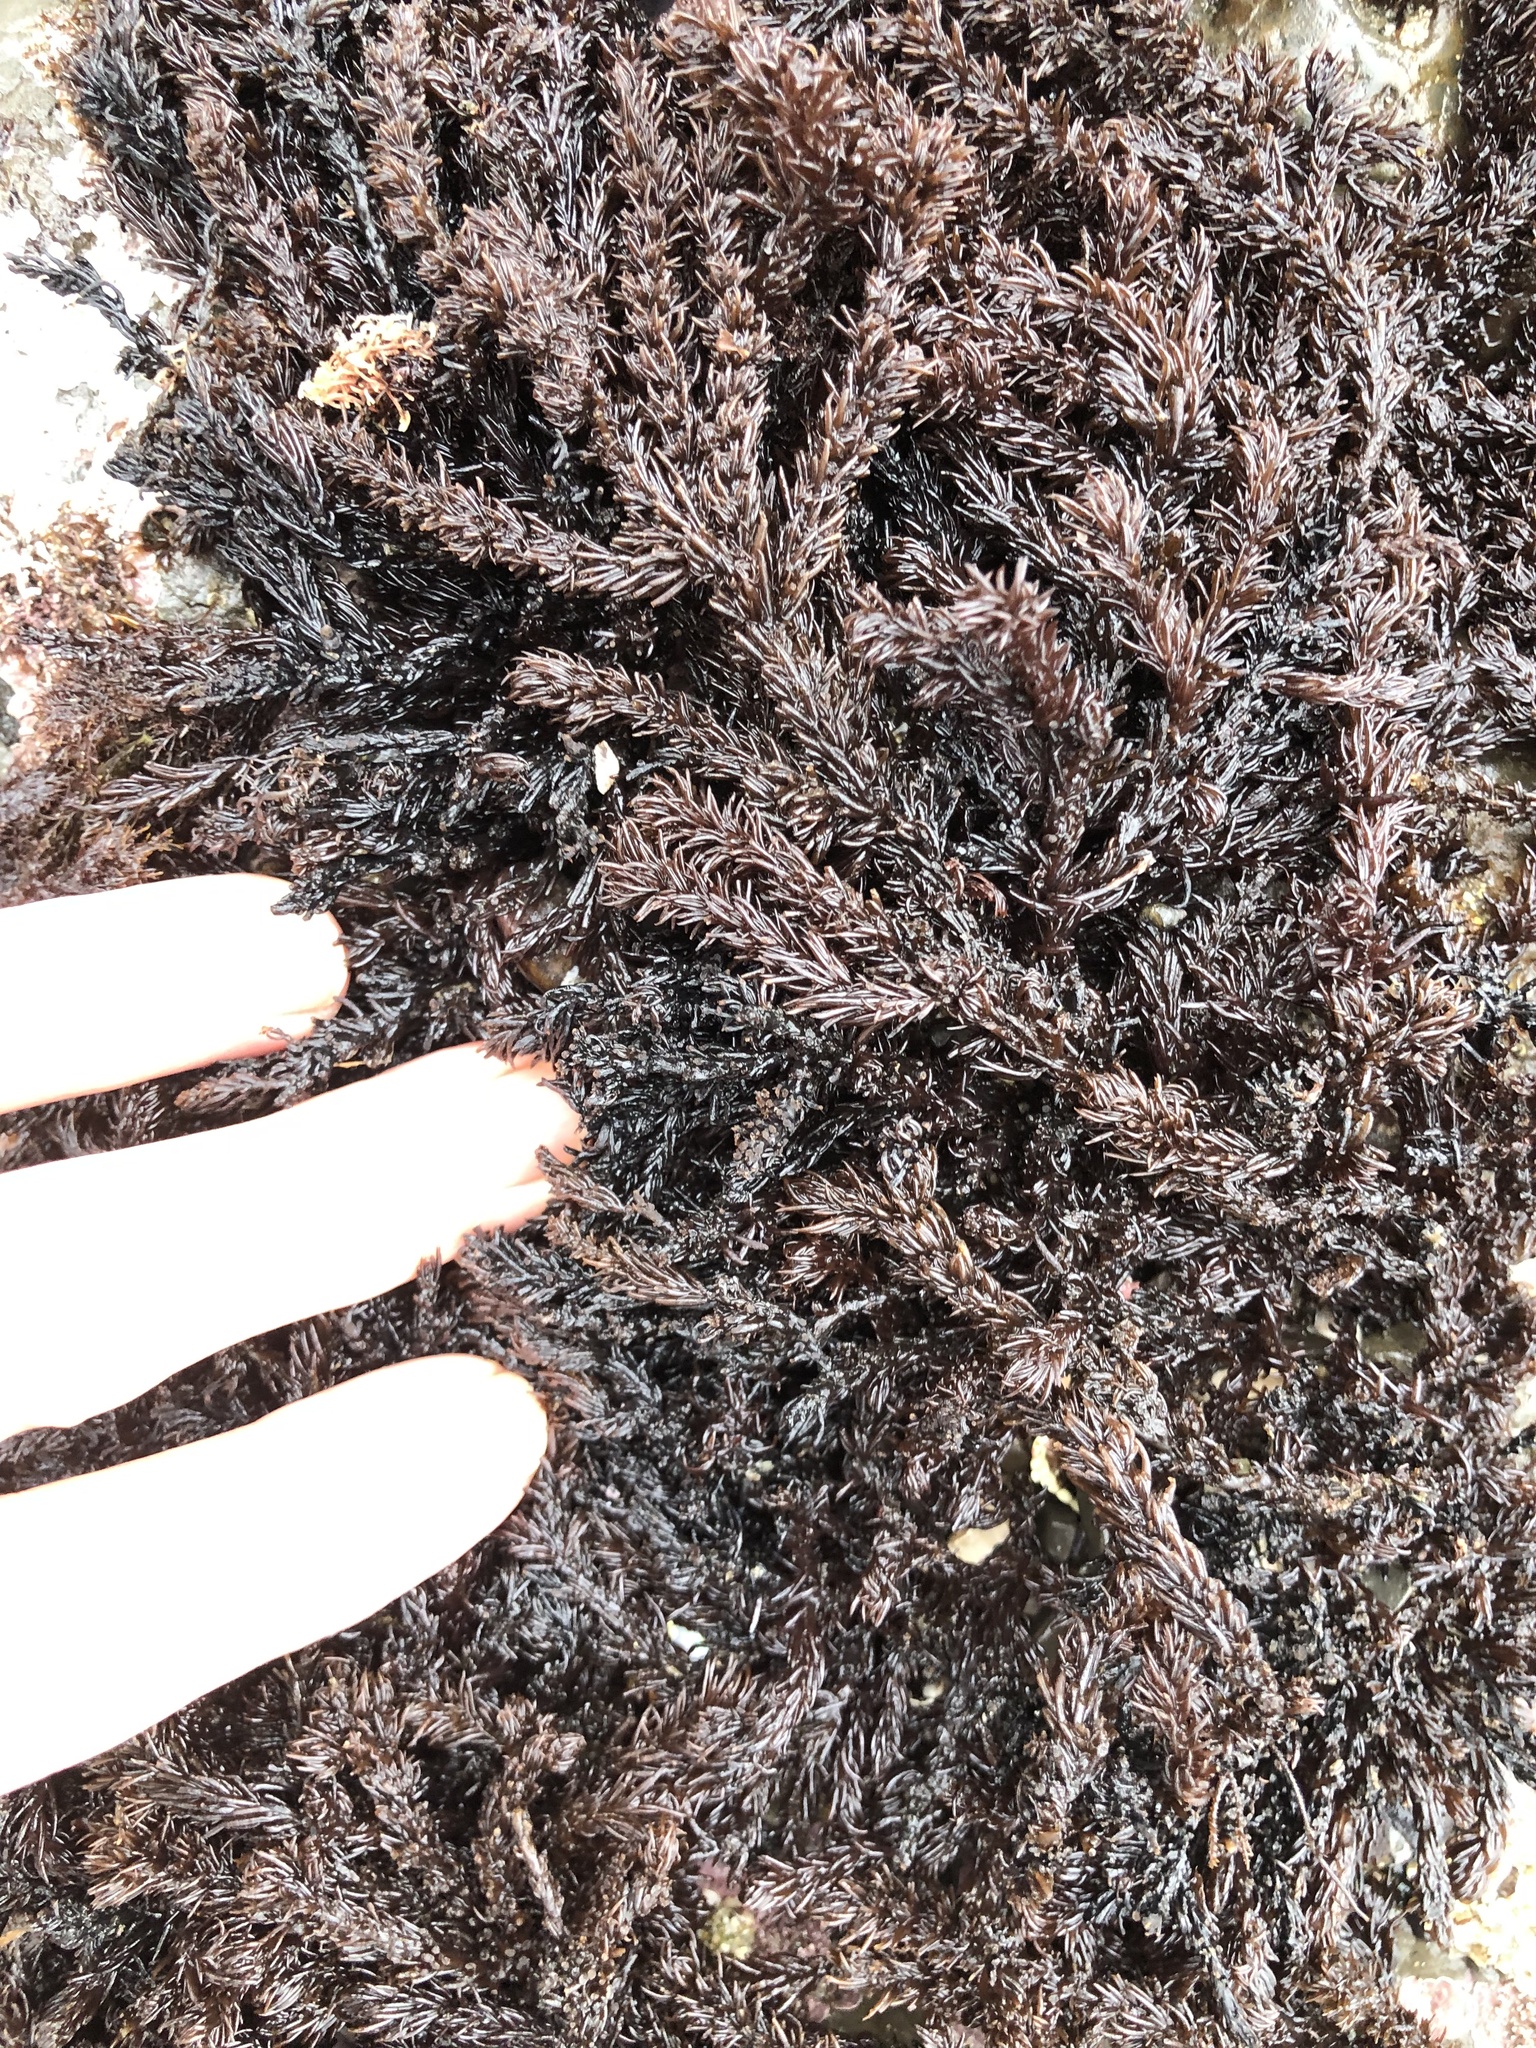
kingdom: Plantae
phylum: Rhodophyta
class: Florideophyceae
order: Ceramiales
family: Rhodomelaceae
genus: Neorhodomela
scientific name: Neorhodomela larix
